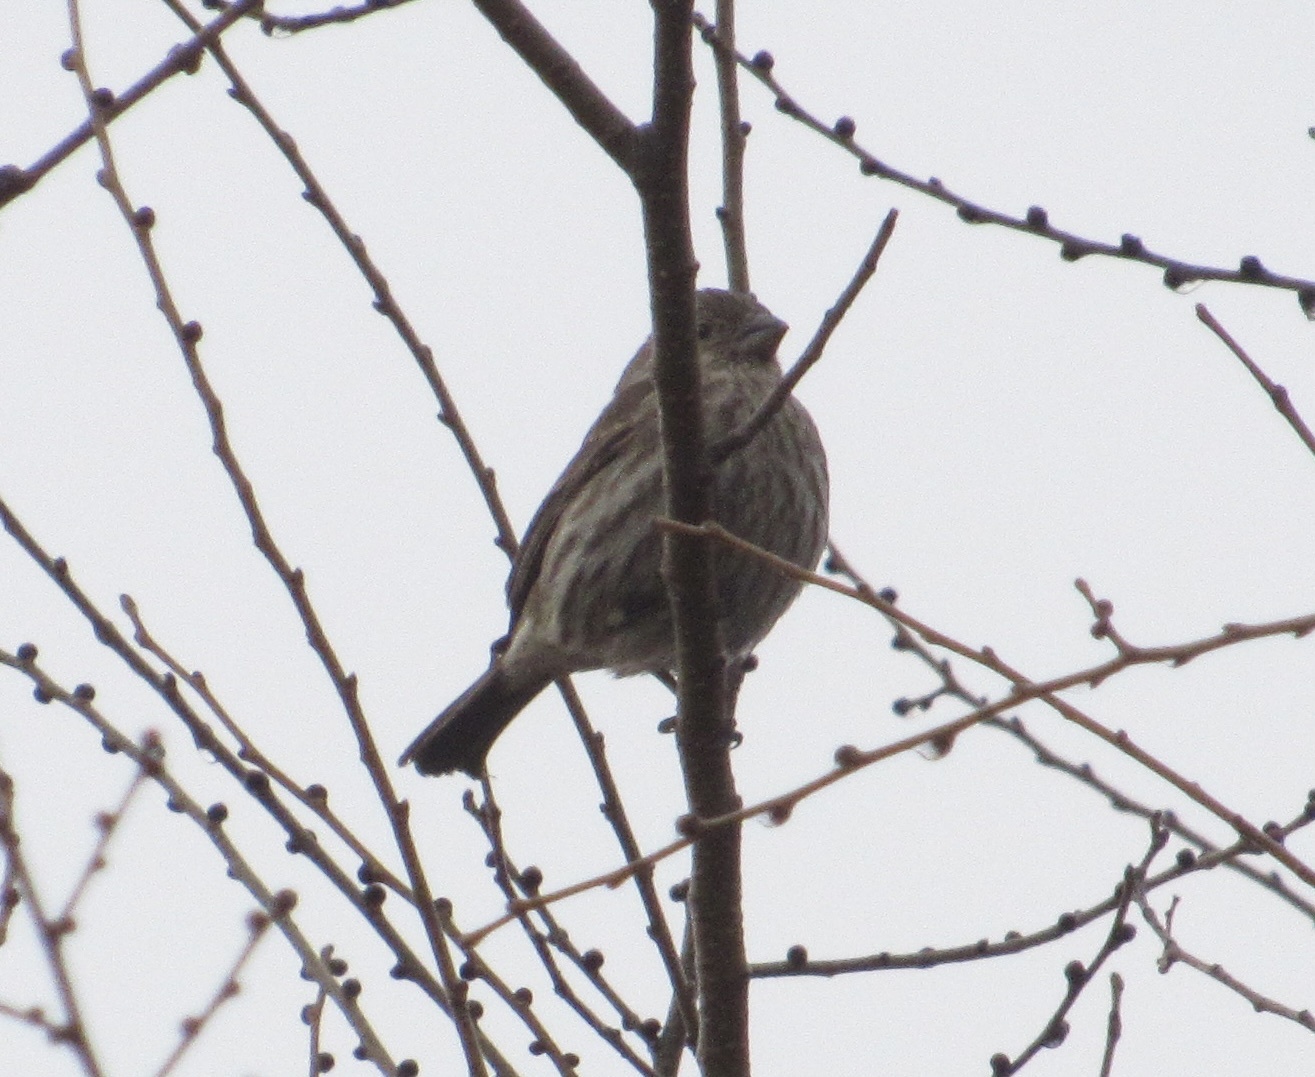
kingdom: Animalia
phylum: Chordata
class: Aves
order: Passeriformes
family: Fringillidae
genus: Haemorhous
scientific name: Haemorhous mexicanus
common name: House finch
